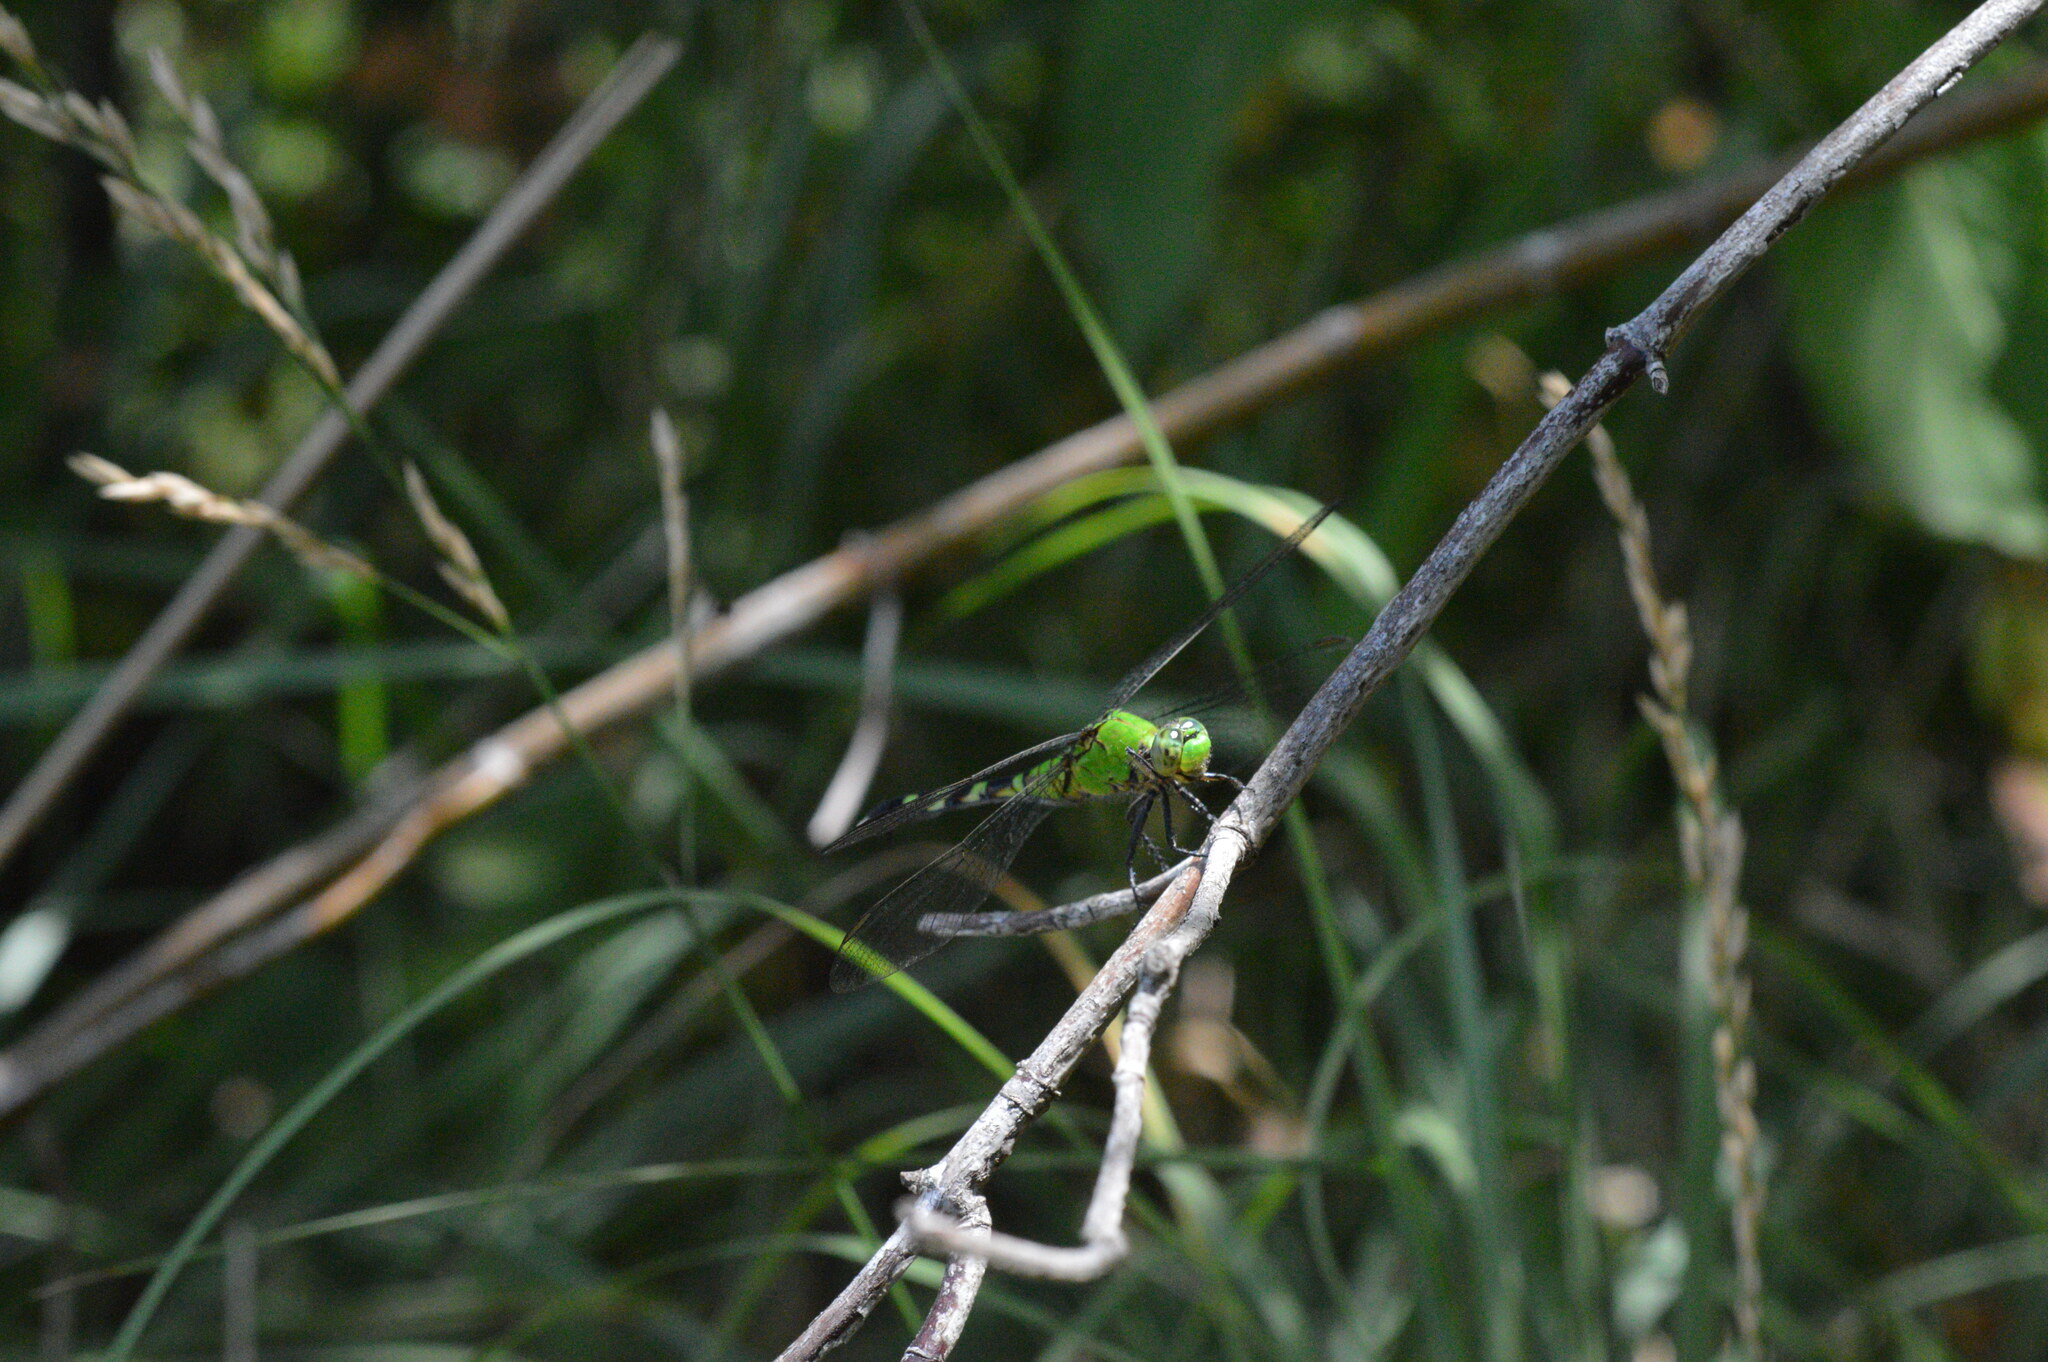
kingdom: Animalia
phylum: Arthropoda
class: Insecta
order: Odonata
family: Libellulidae
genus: Erythemis
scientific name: Erythemis simplicicollis
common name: Eastern pondhawk
